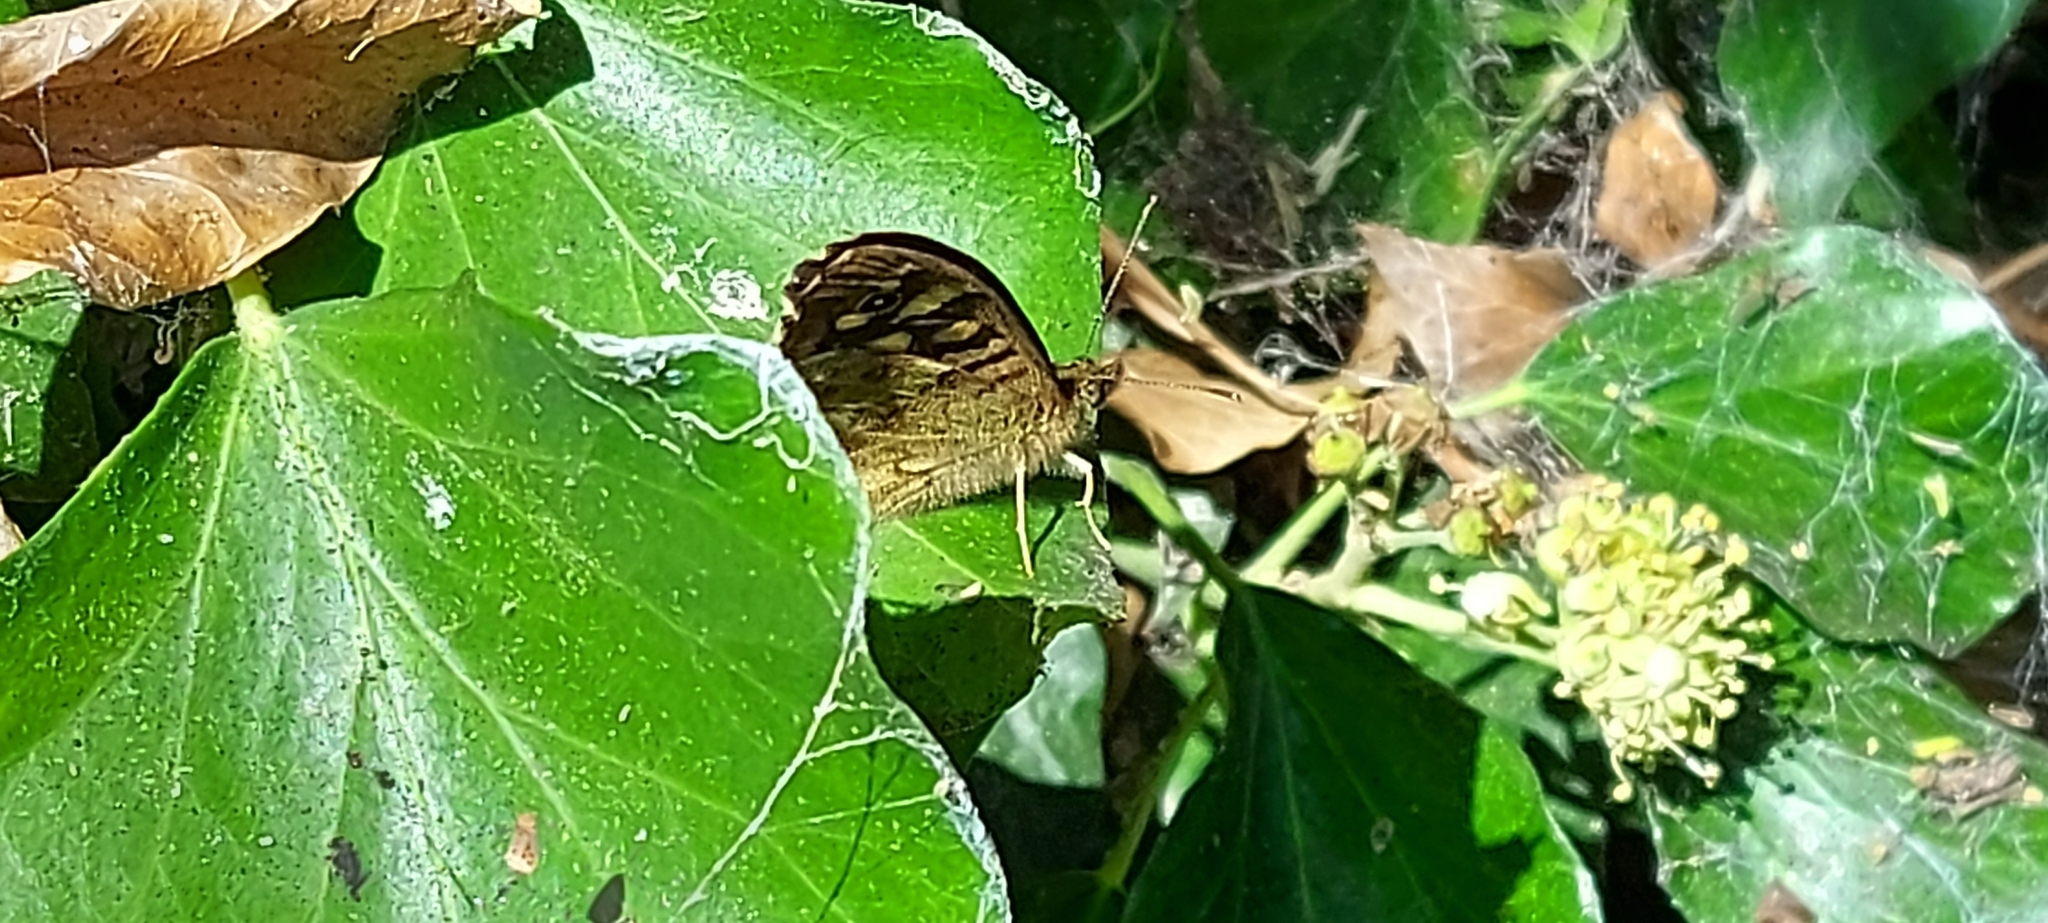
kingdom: Animalia
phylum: Arthropoda
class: Insecta
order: Lepidoptera
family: Nymphalidae
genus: Pararge
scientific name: Pararge aegeria
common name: Speckled wood
